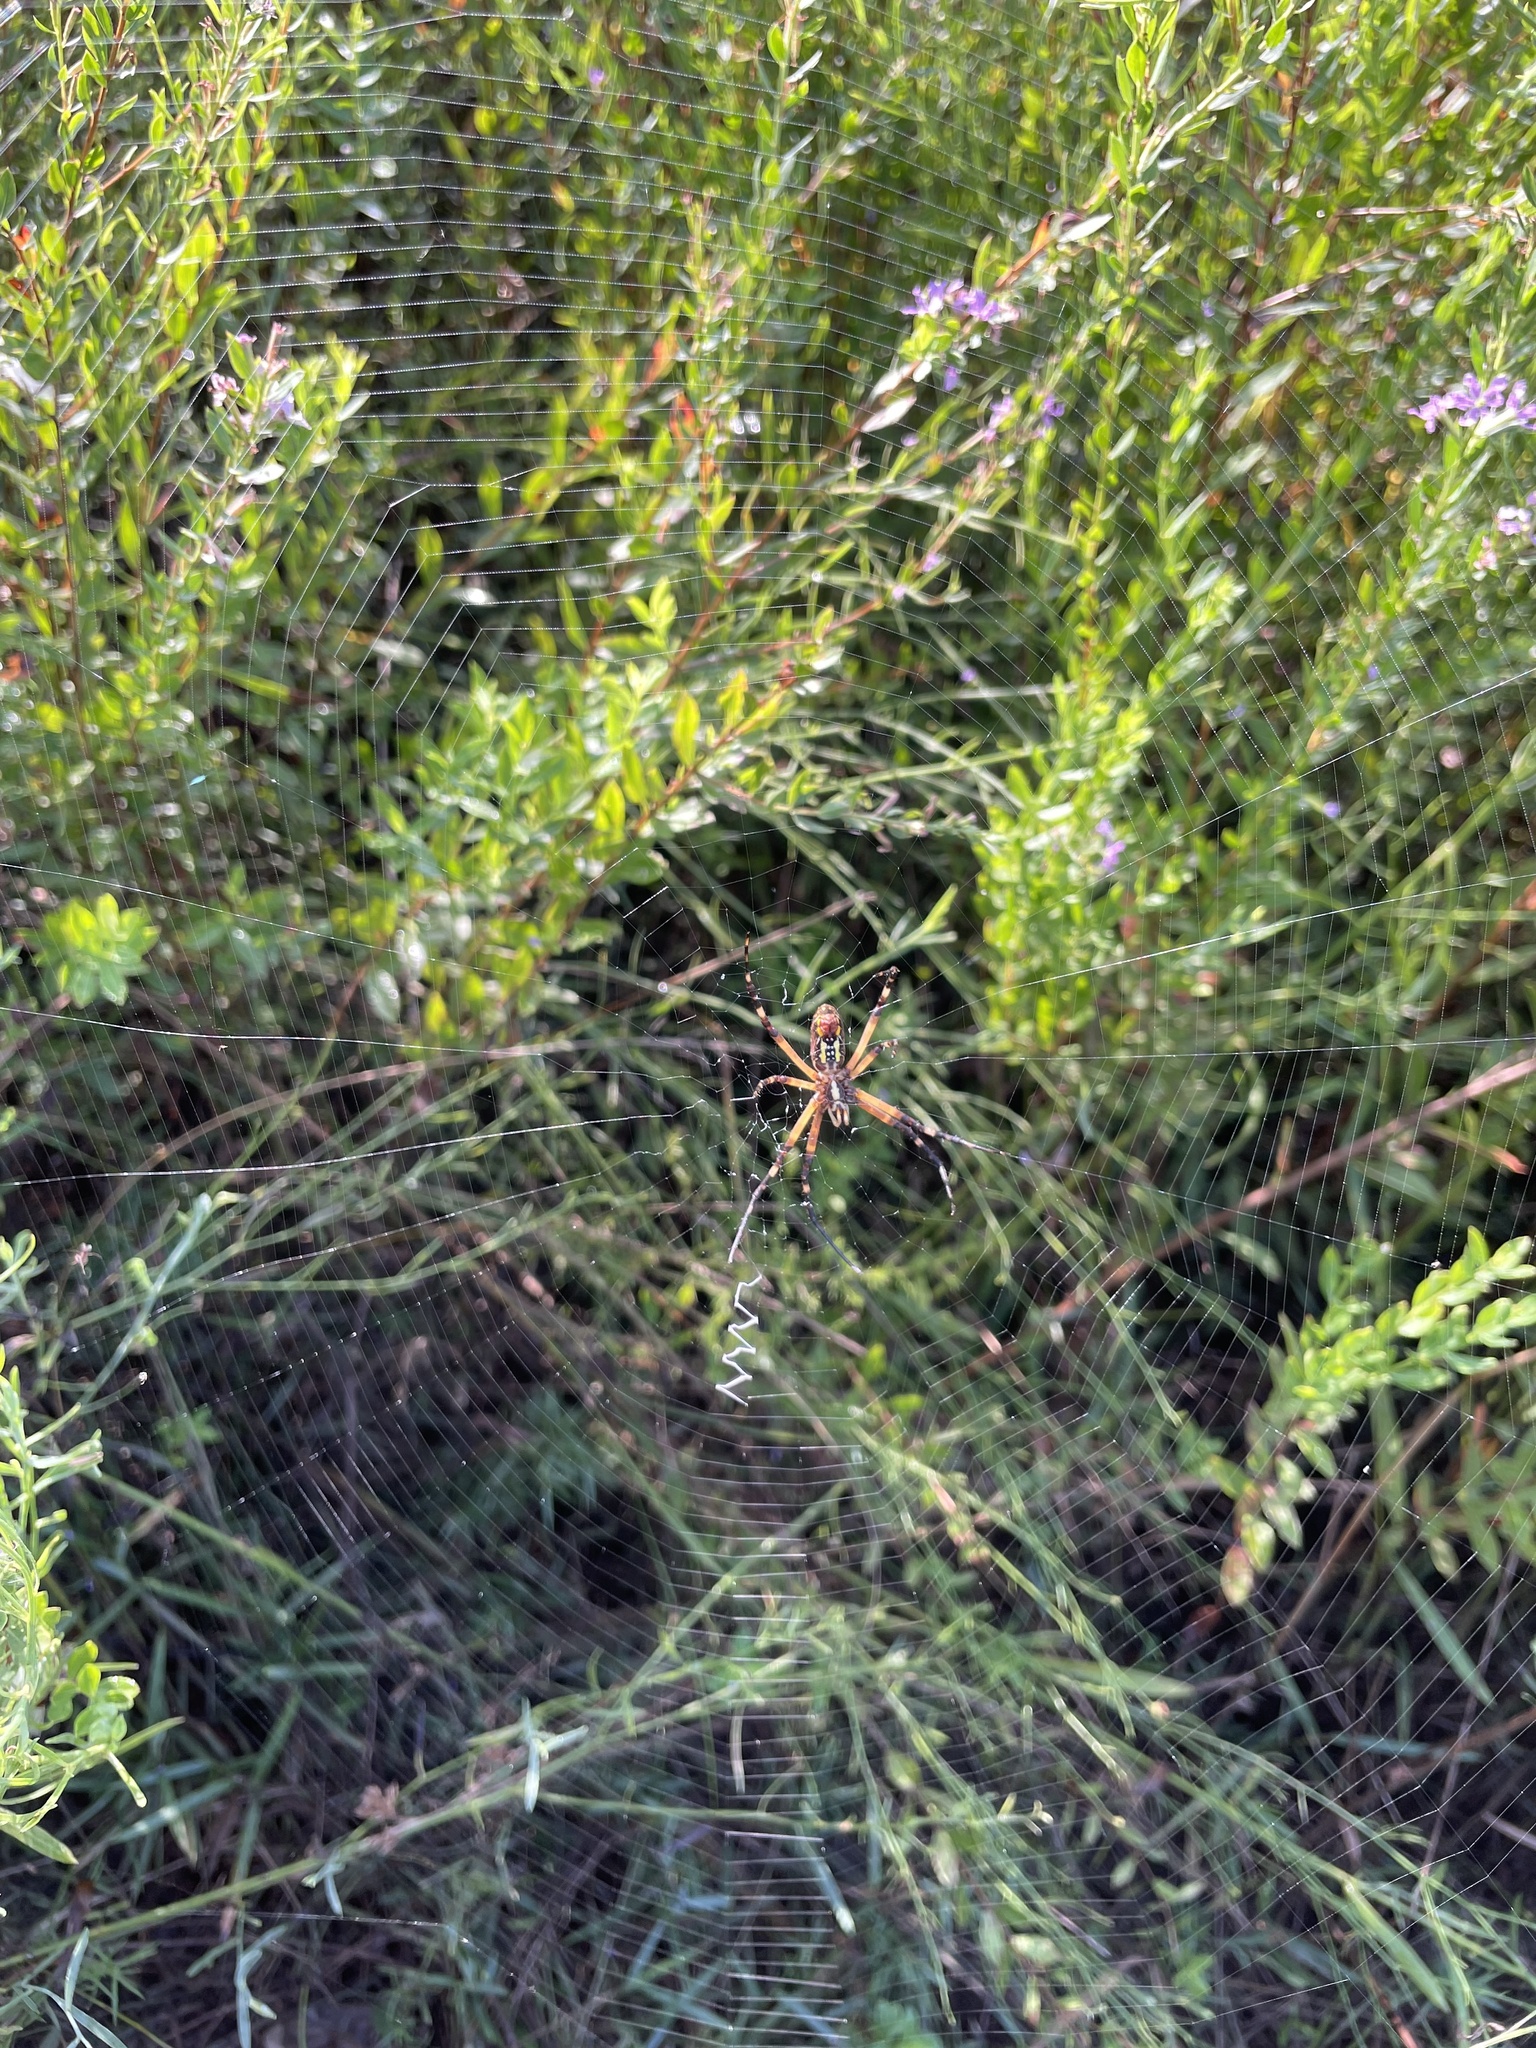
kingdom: Animalia
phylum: Arthropoda
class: Arachnida
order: Araneae
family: Araneidae
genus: Argiope
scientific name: Argiope aurantia
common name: Orb weavers
